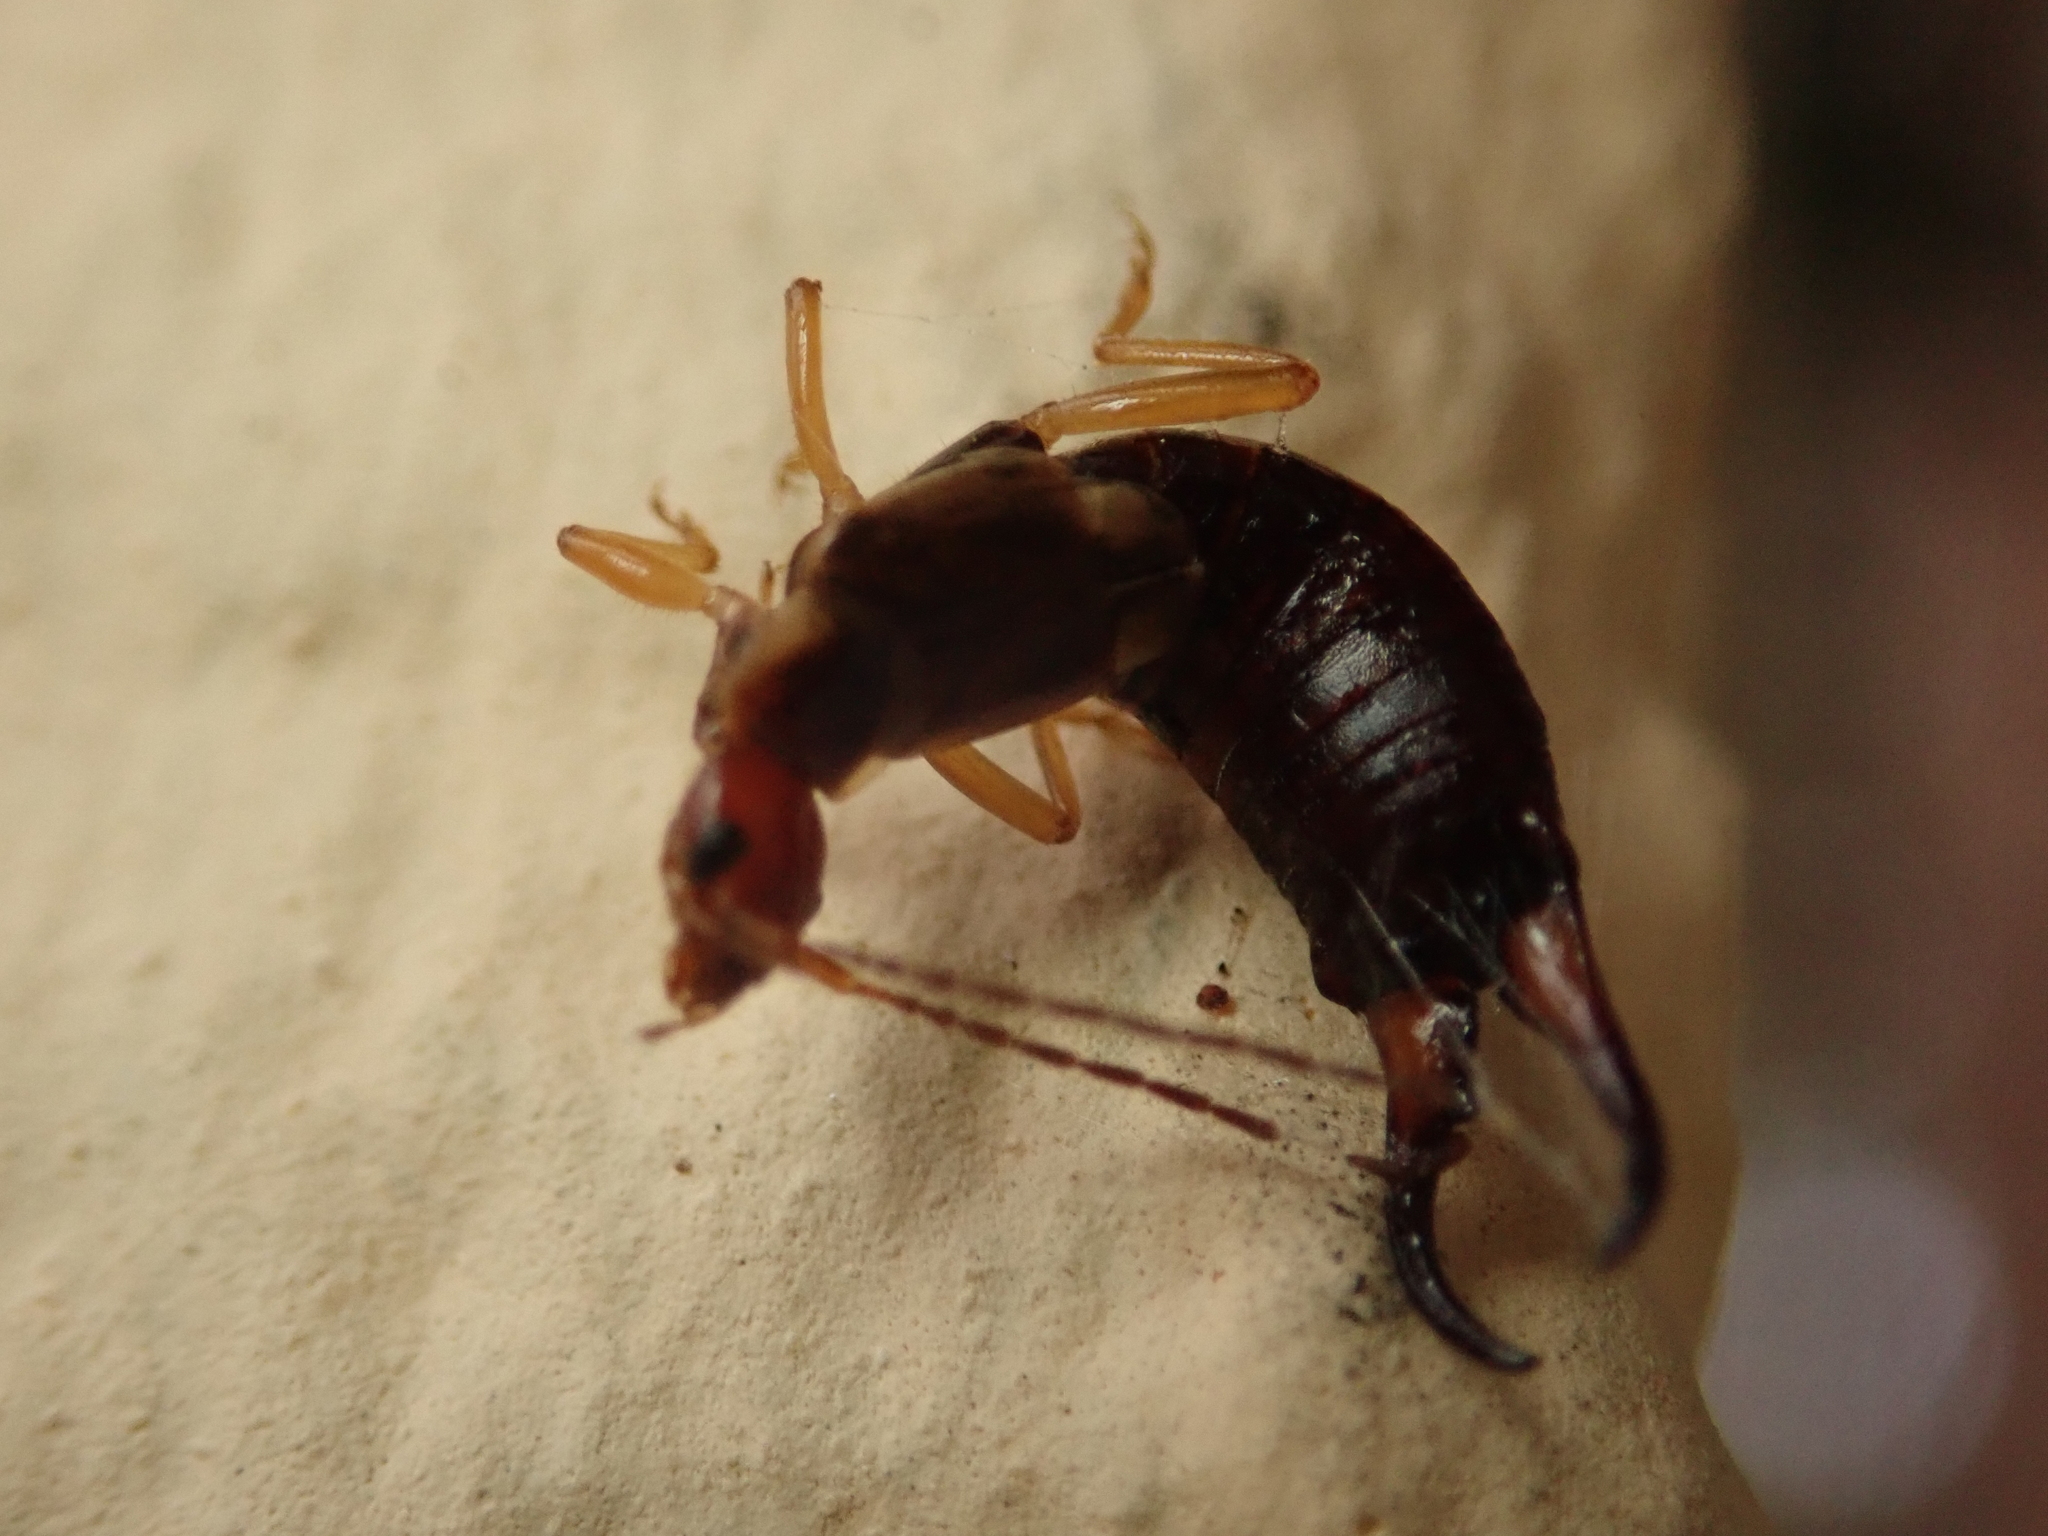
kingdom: Animalia
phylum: Arthropoda
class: Insecta
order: Dermaptera
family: Forficulidae
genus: Forficula
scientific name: Forficula
